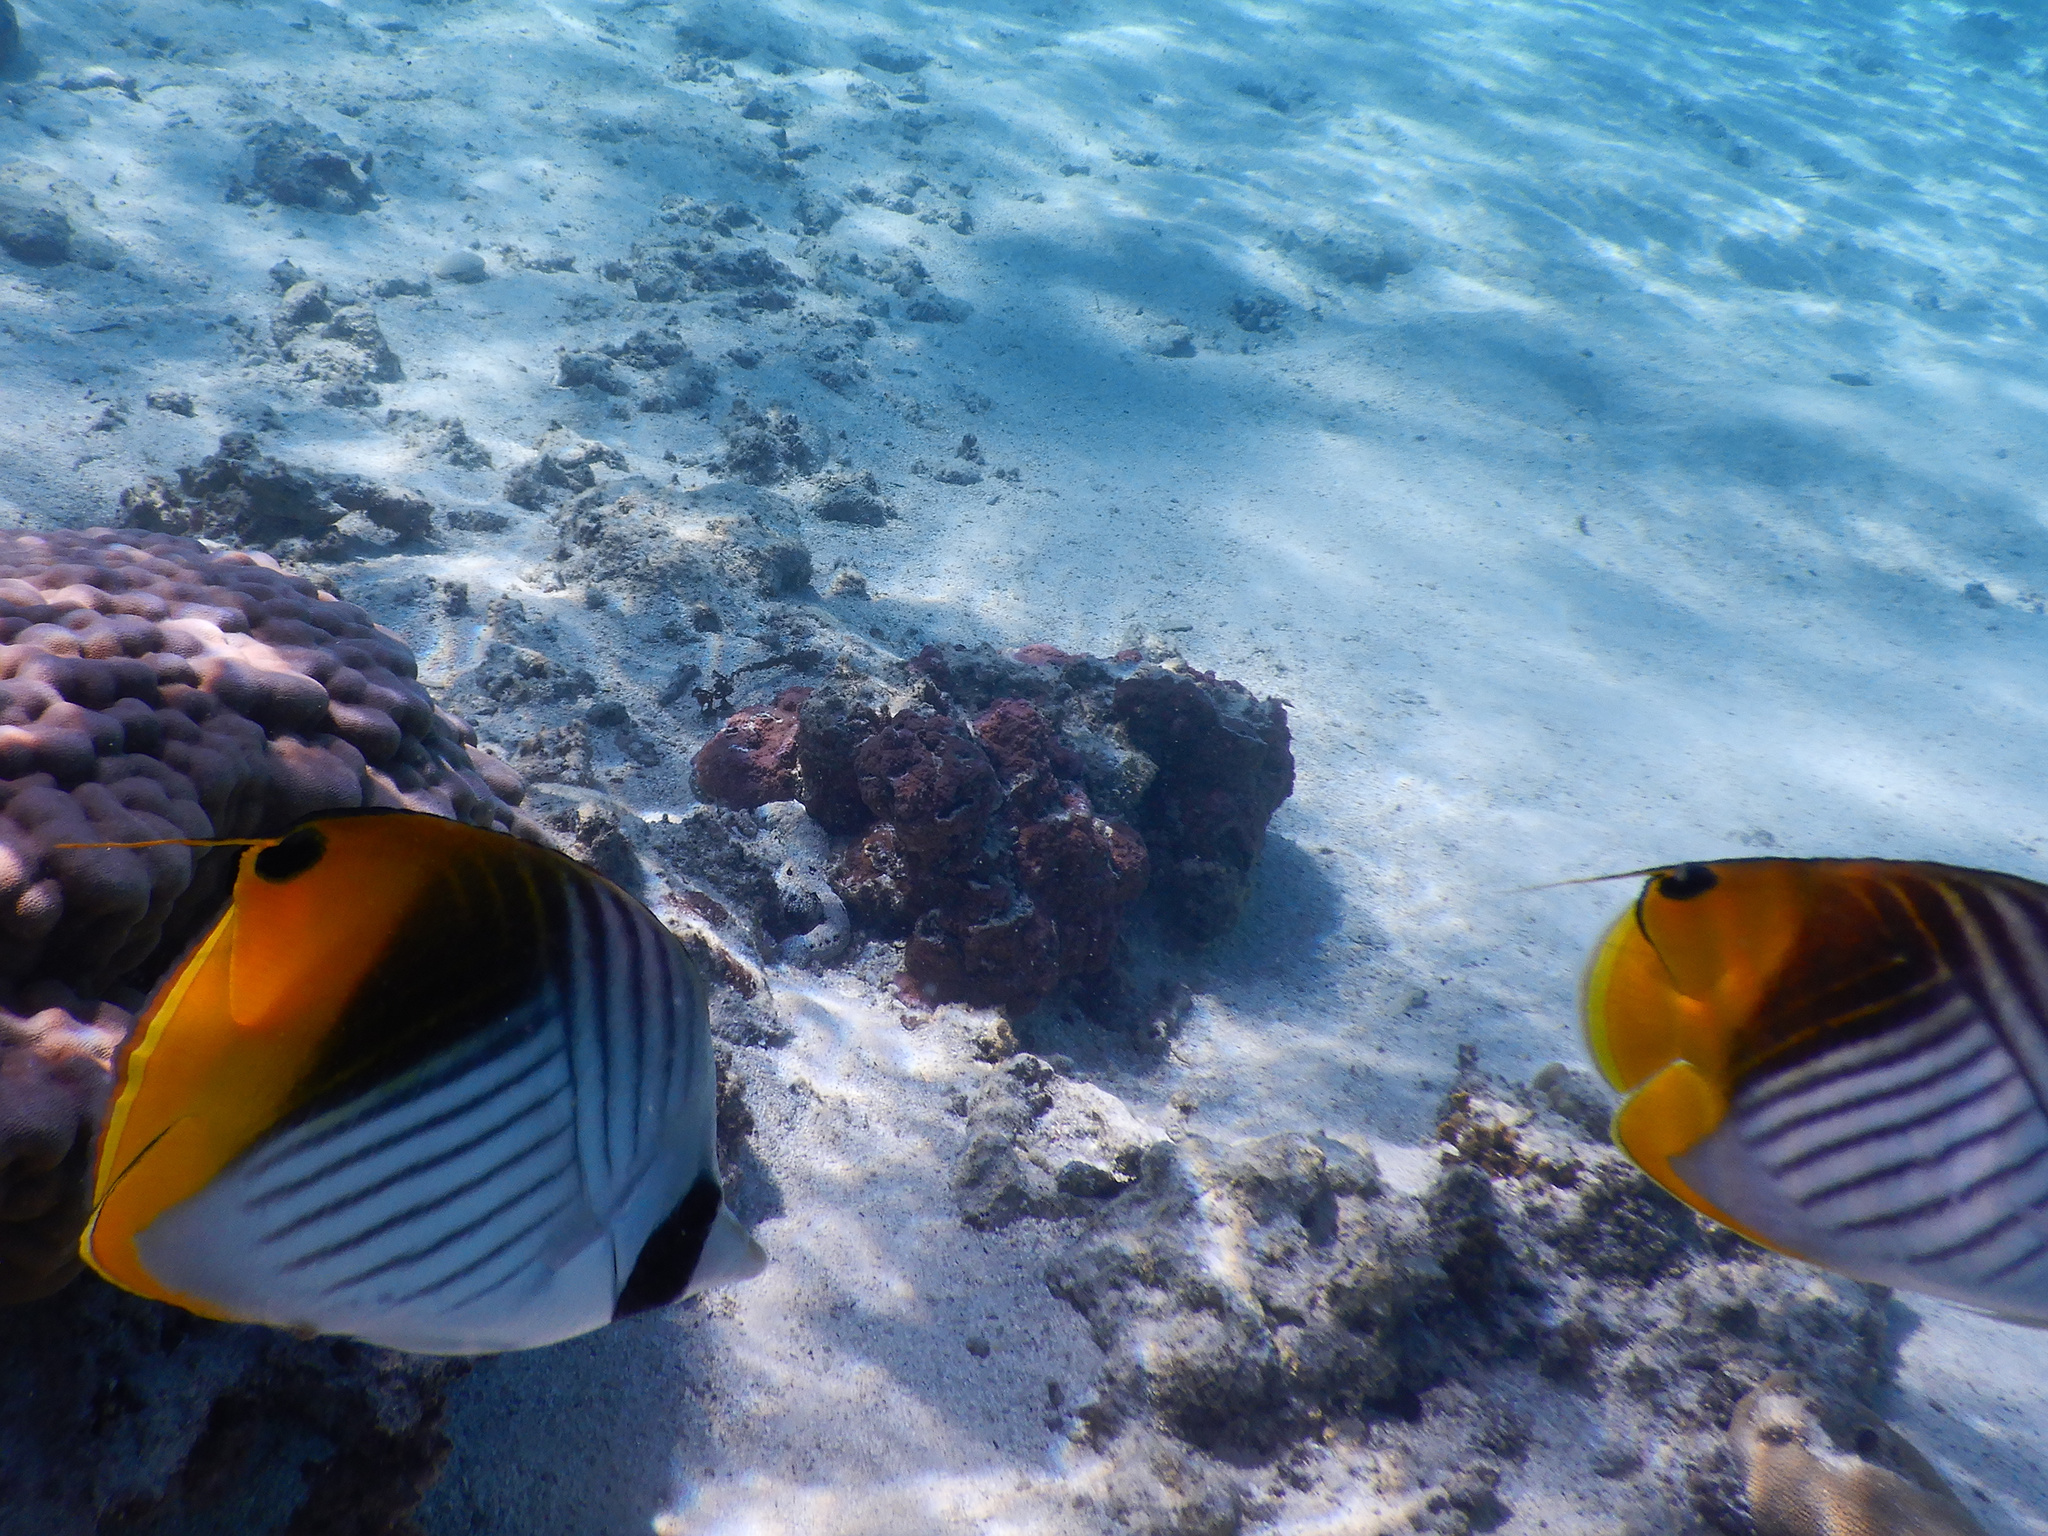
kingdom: Animalia
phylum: Chordata
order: Perciformes
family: Chaetodontidae
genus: Chaetodon
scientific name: Chaetodon auriga
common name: Threadfin butterflyfish
